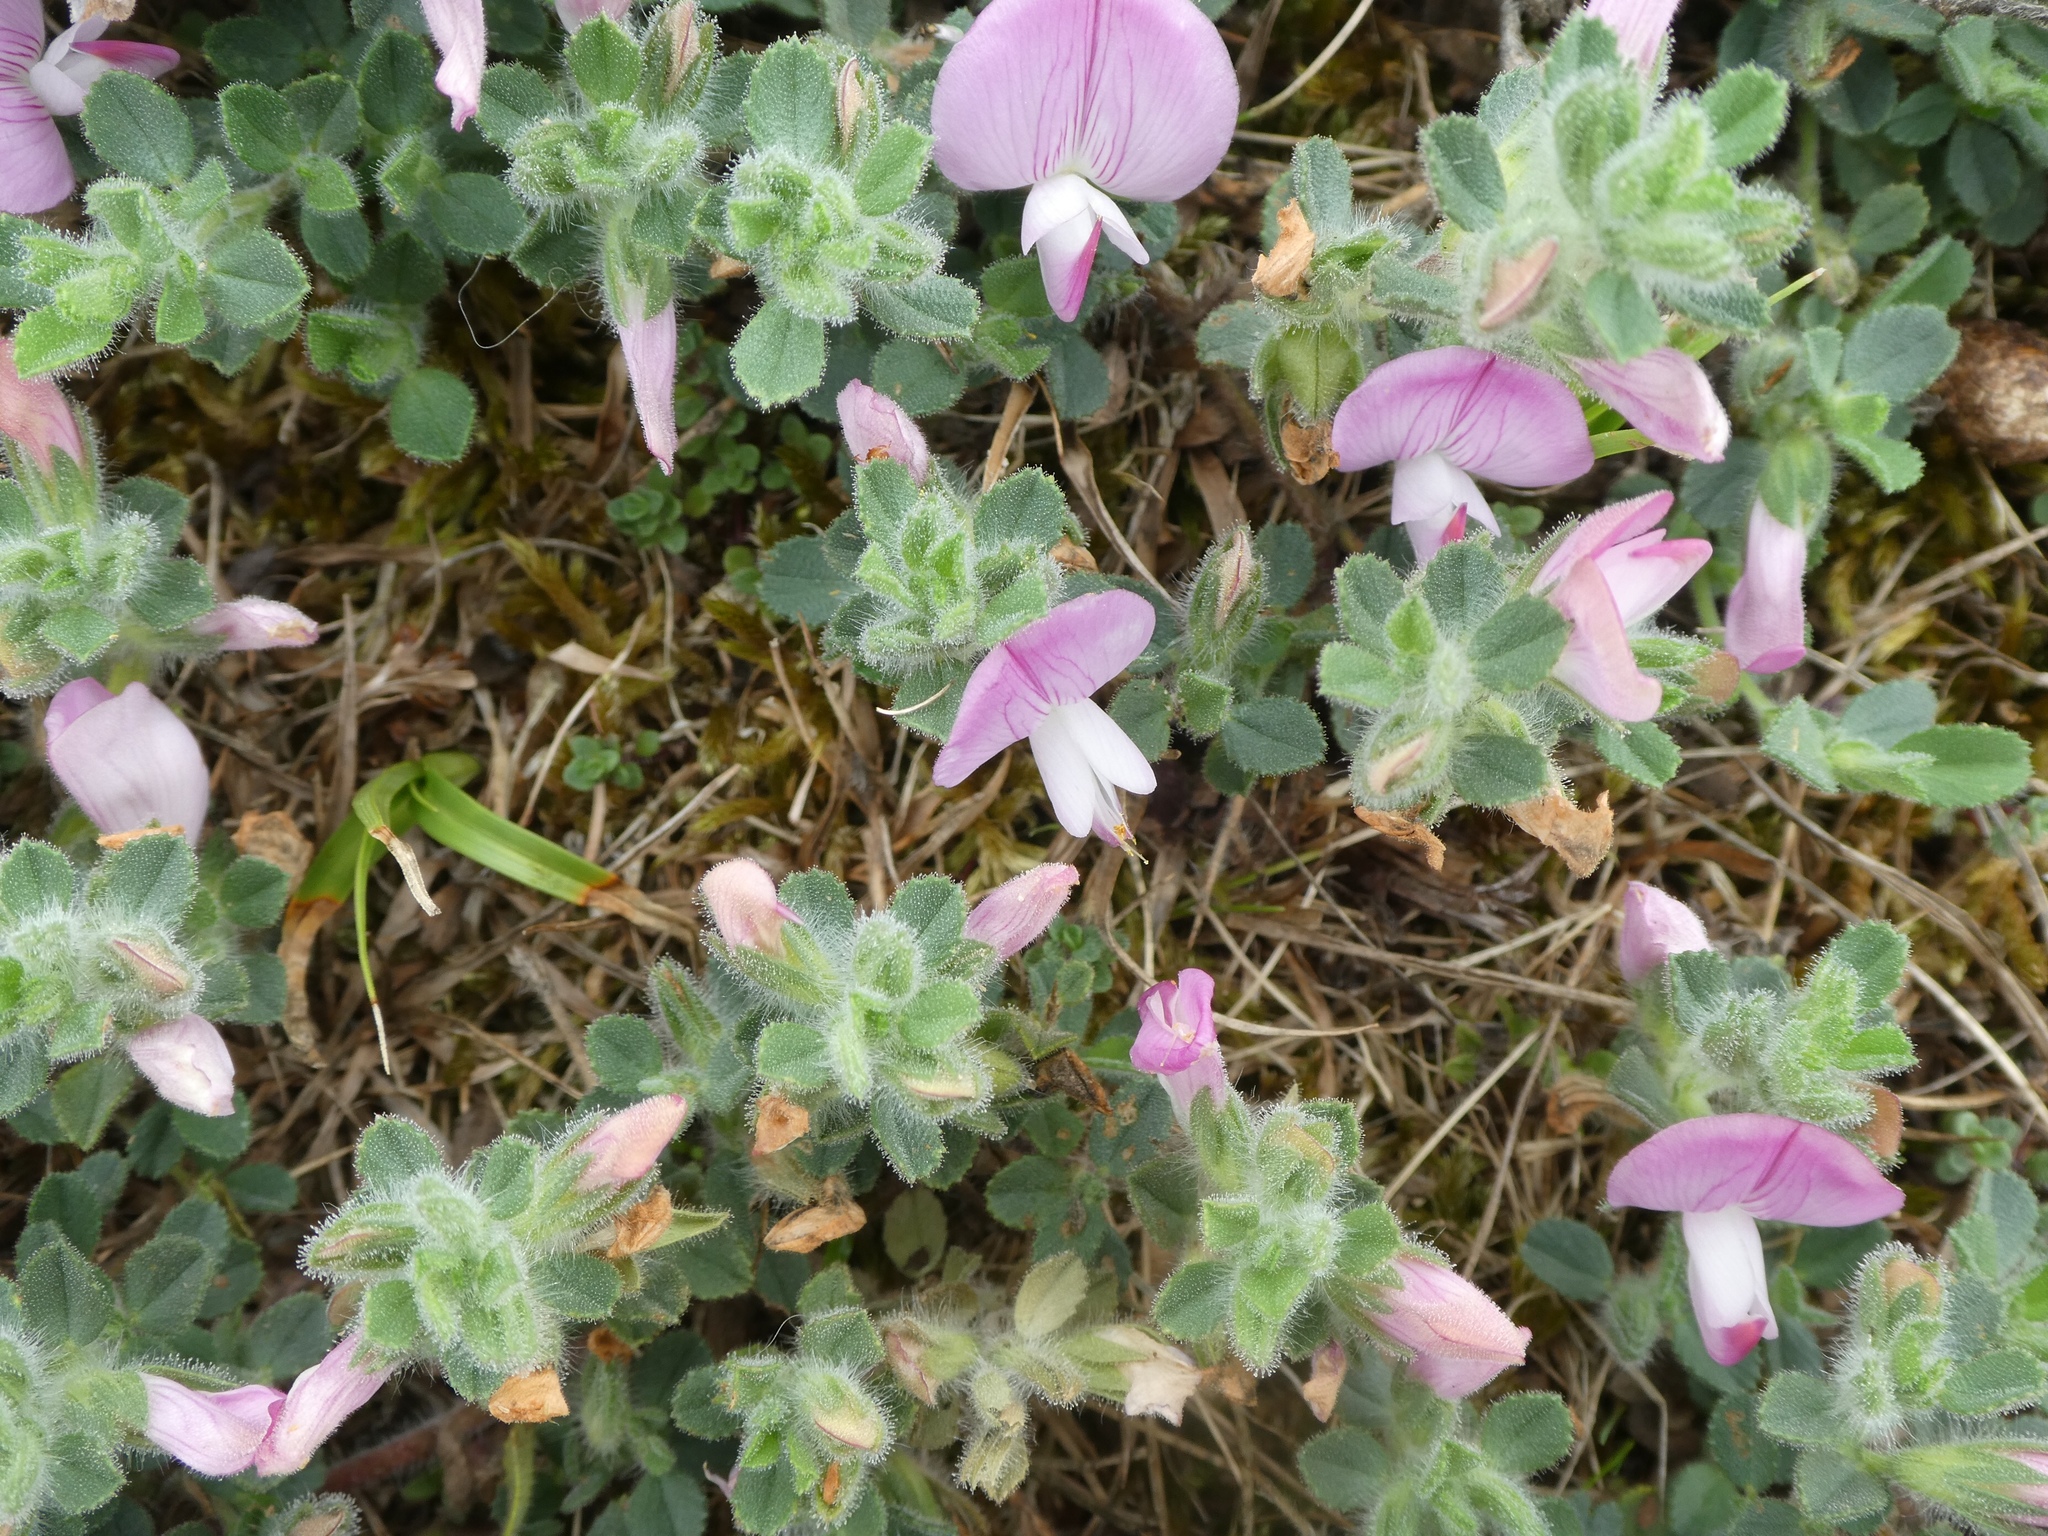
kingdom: Plantae
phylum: Tracheophyta
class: Magnoliopsida
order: Fabales
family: Fabaceae
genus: Ononis
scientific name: Ononis spinosa
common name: Spiny restharrow
